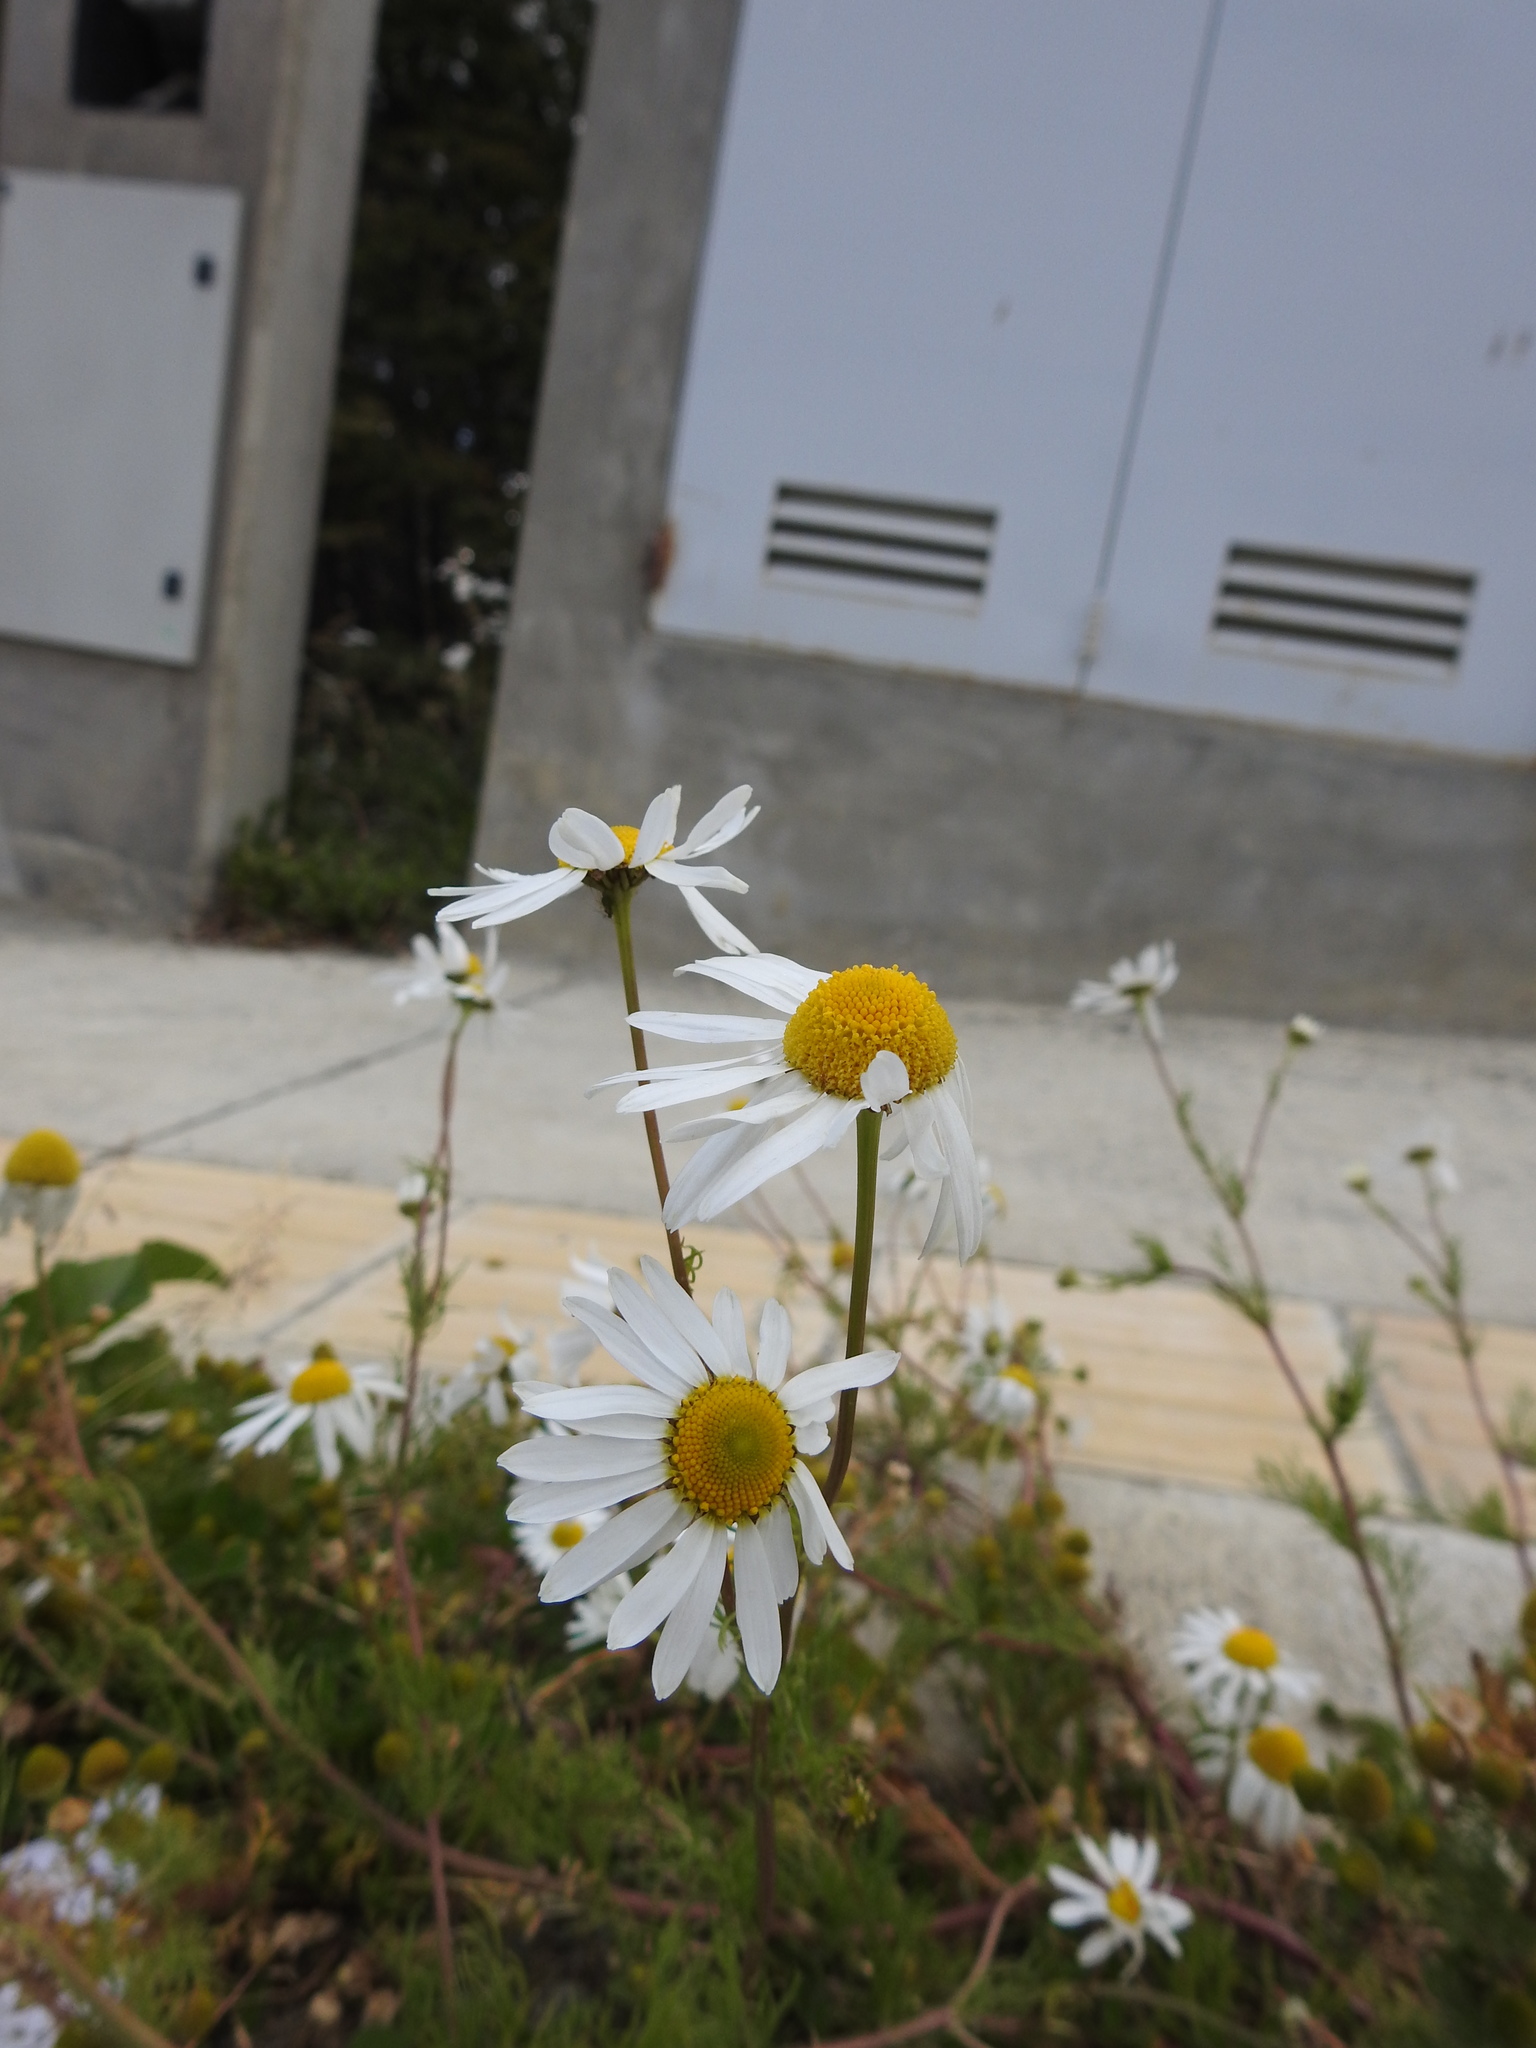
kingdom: Plantae
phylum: Tracheophyta
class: Magnoliopsida
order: Asterales
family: Asteraceae
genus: Tripleurospermum
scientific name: Tripleurospermum maritimum
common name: Sea mayweed
